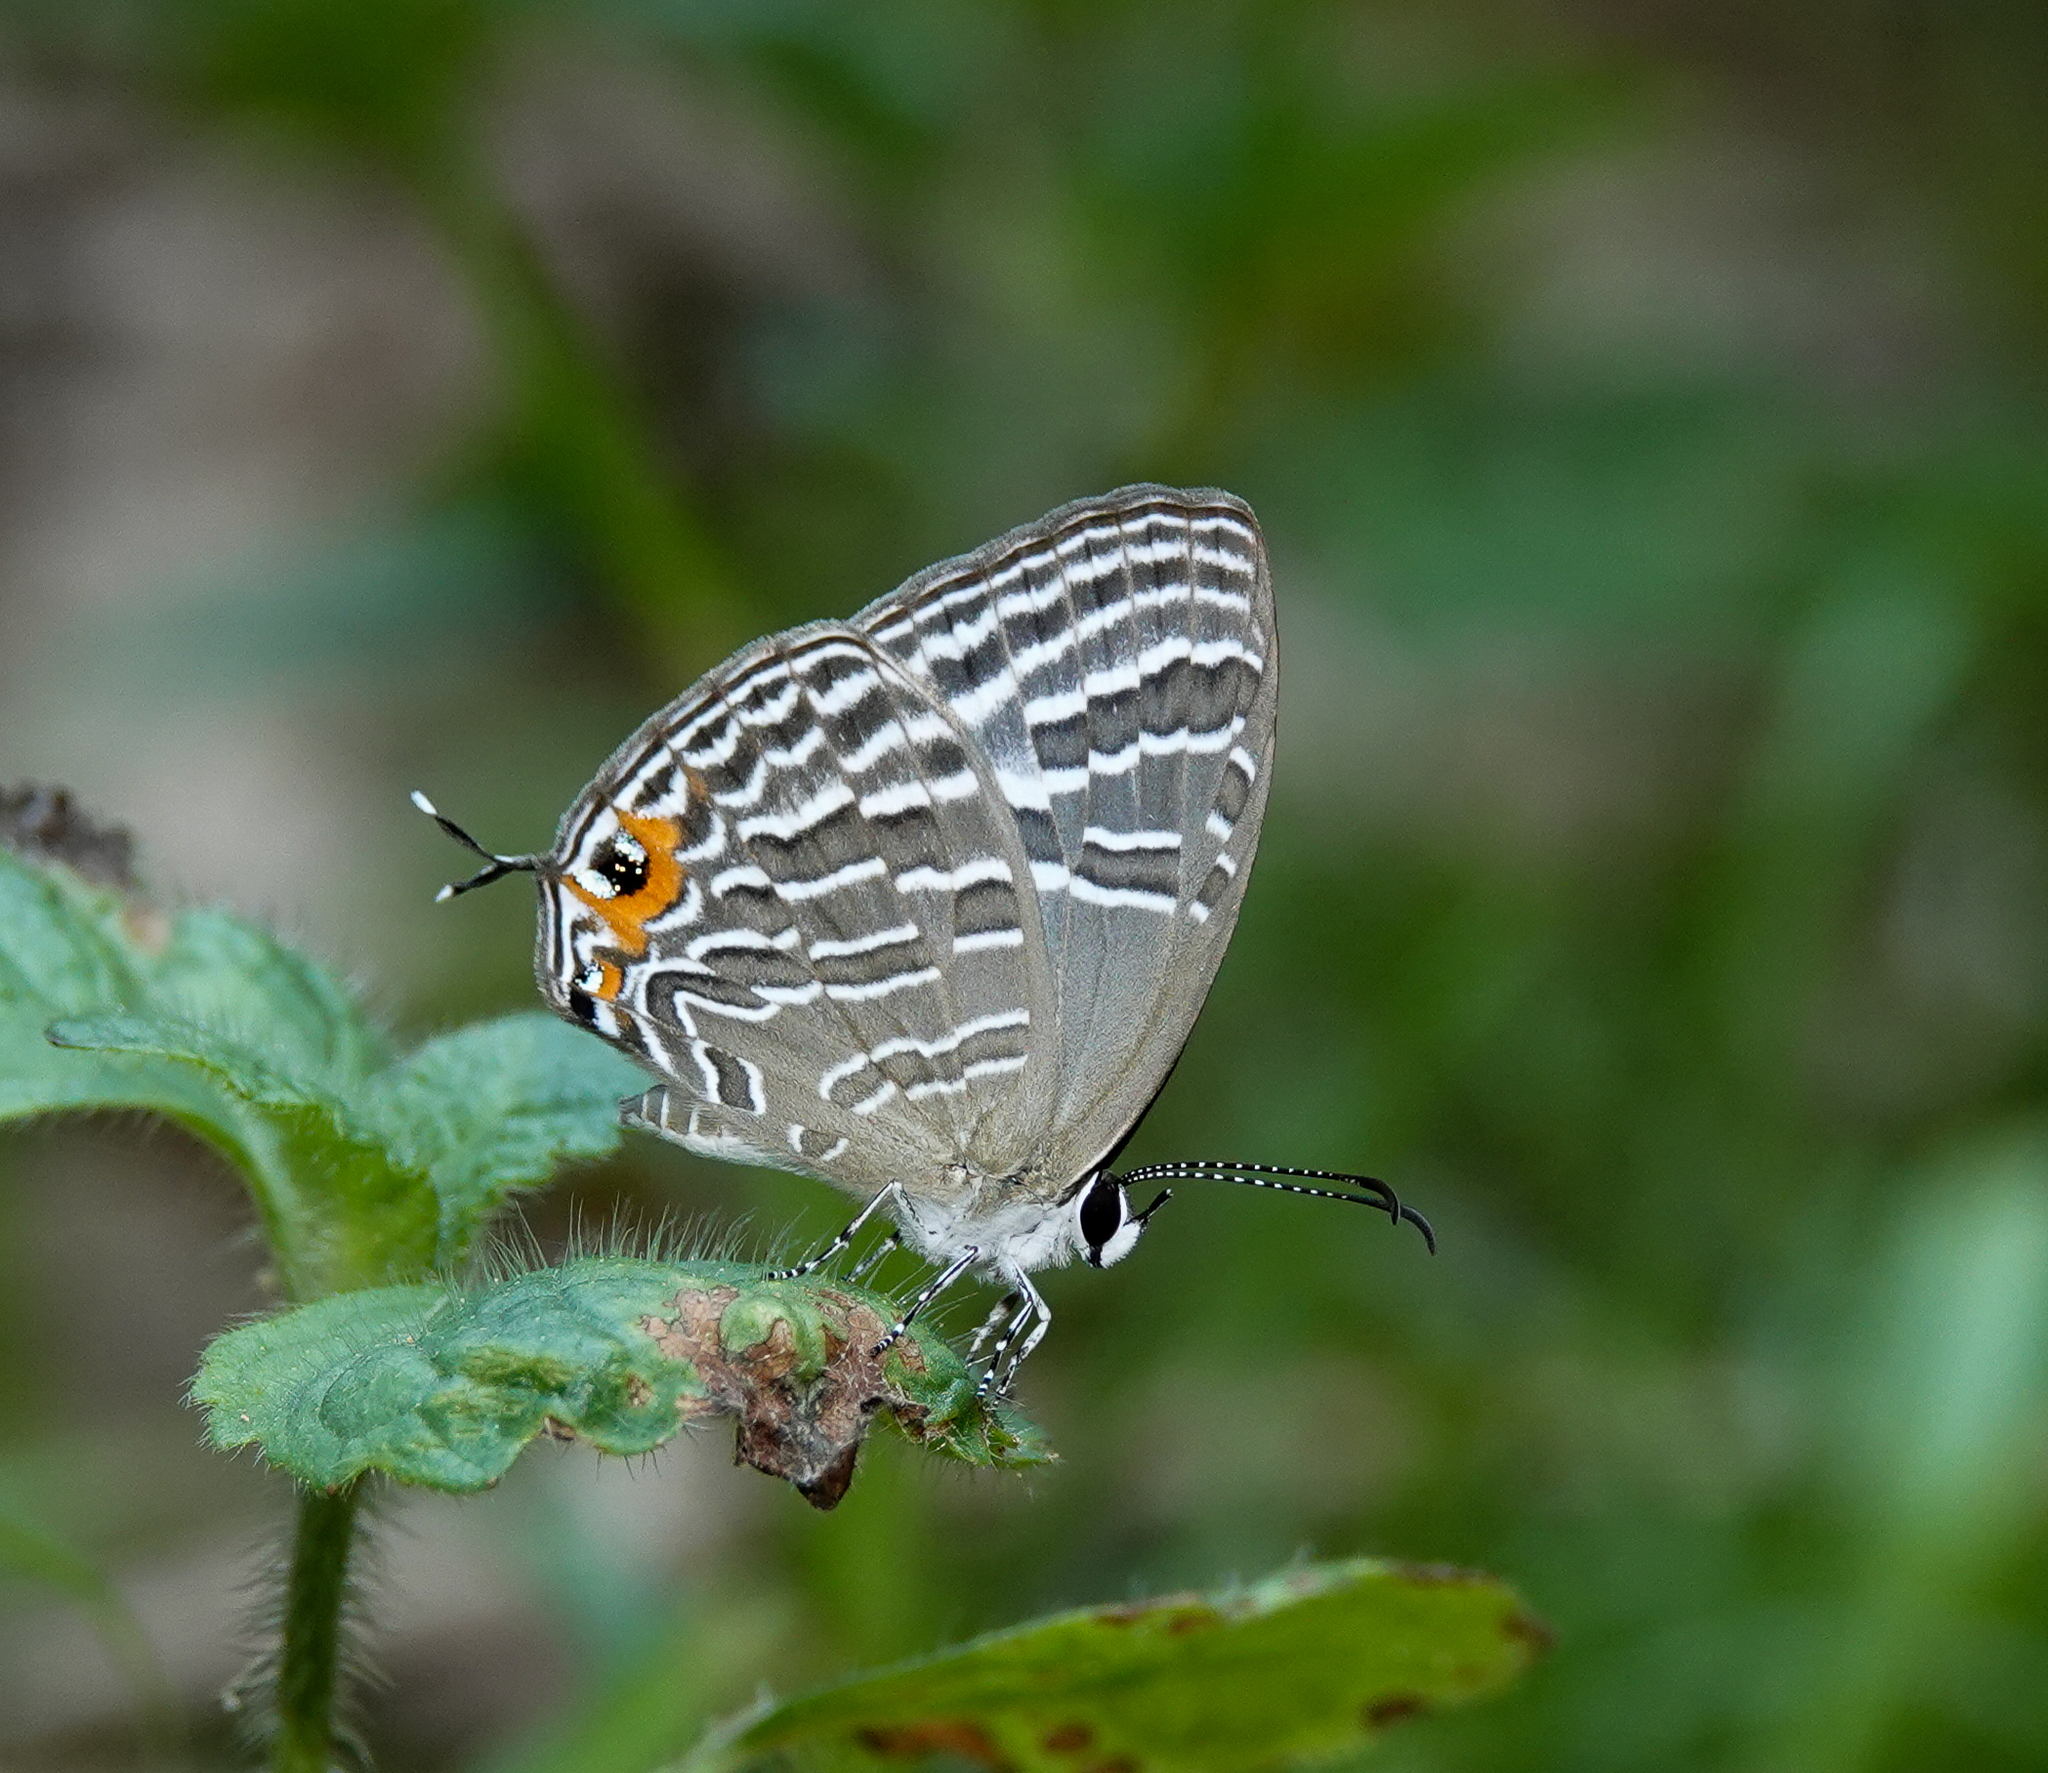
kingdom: Animalia
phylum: Arthropoda
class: Insecta
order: Lepidoptera
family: Lycaenidae
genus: Jamides
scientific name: Jamides celeno
